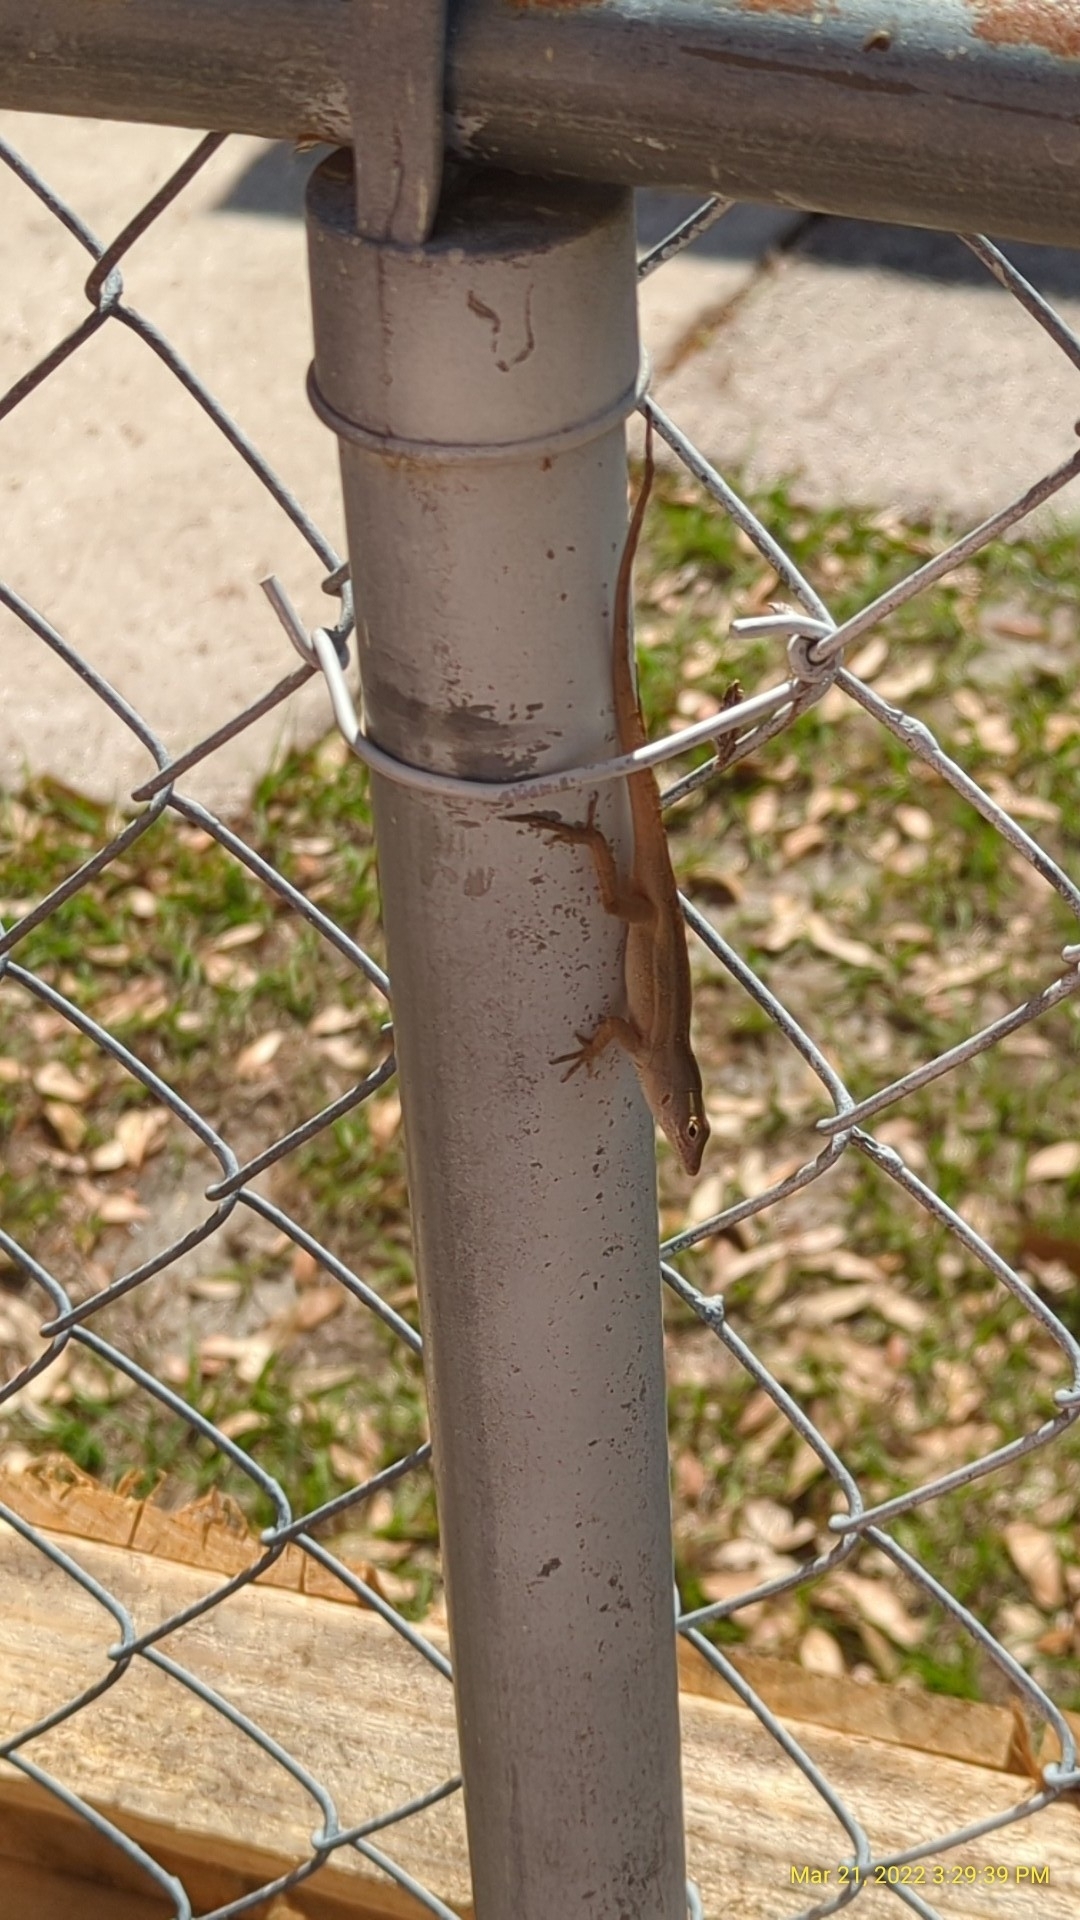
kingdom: Animalia
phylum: Chordata
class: Squamata
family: Dactyloidae
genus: Anolis
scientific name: Anolis sagrei
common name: Brown anole
